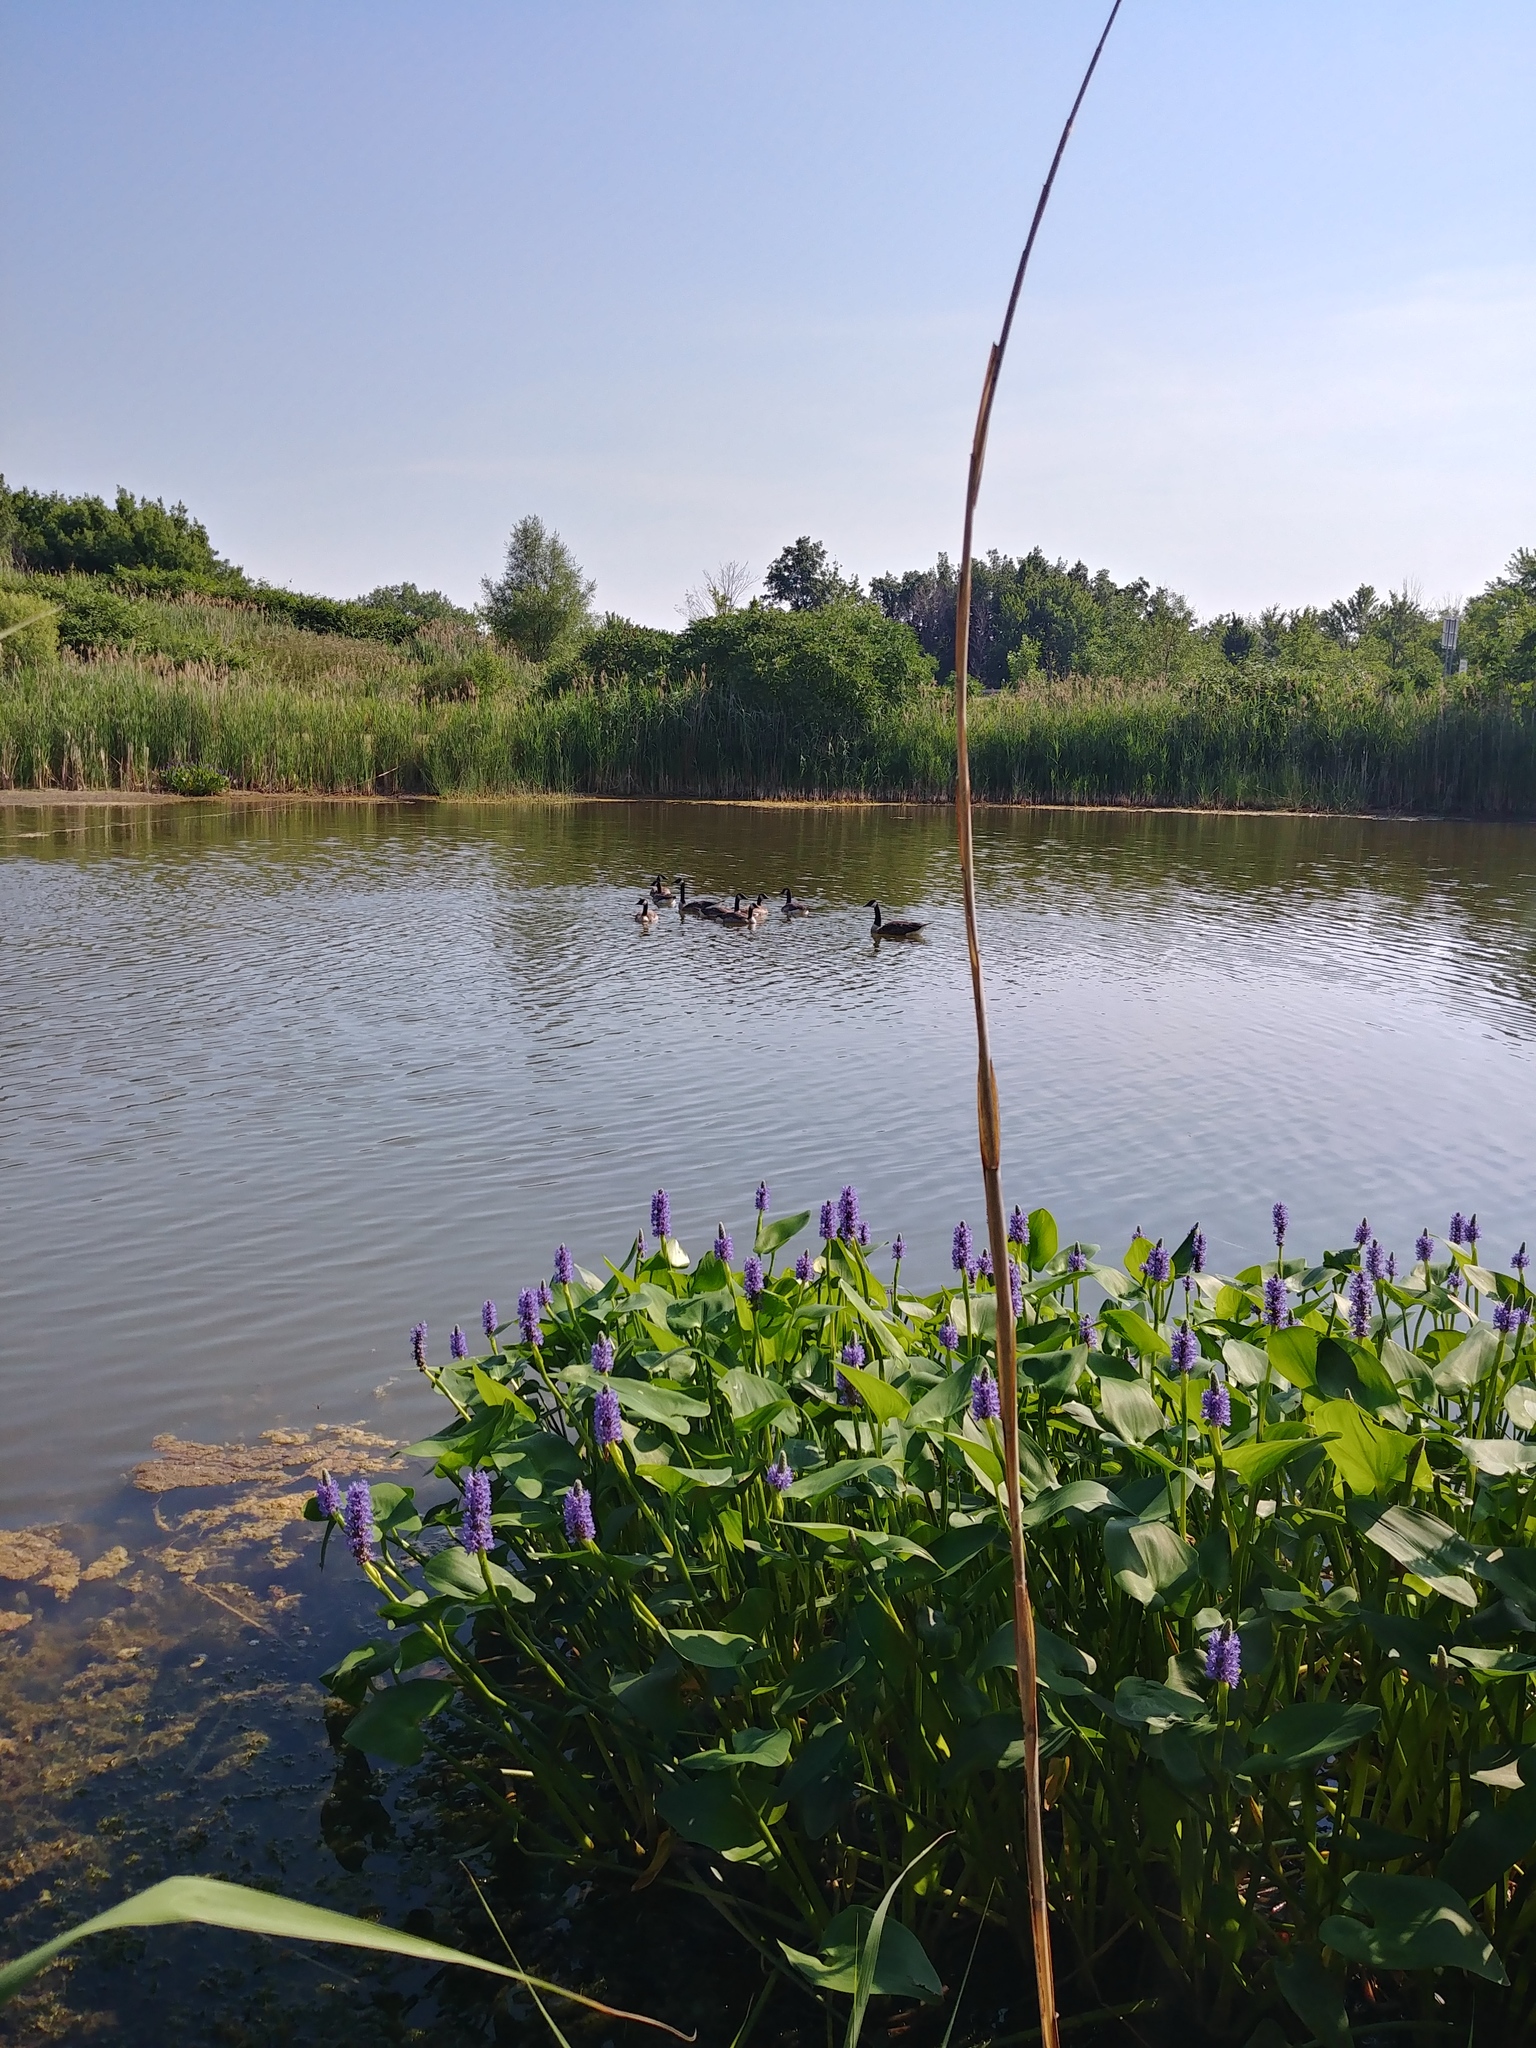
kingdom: Plantae
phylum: Tracheophyta
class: Liliopsida
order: Commelinales
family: Pontederiaceae
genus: Pontederia
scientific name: Pontederia cordata
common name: Pickerelweed
